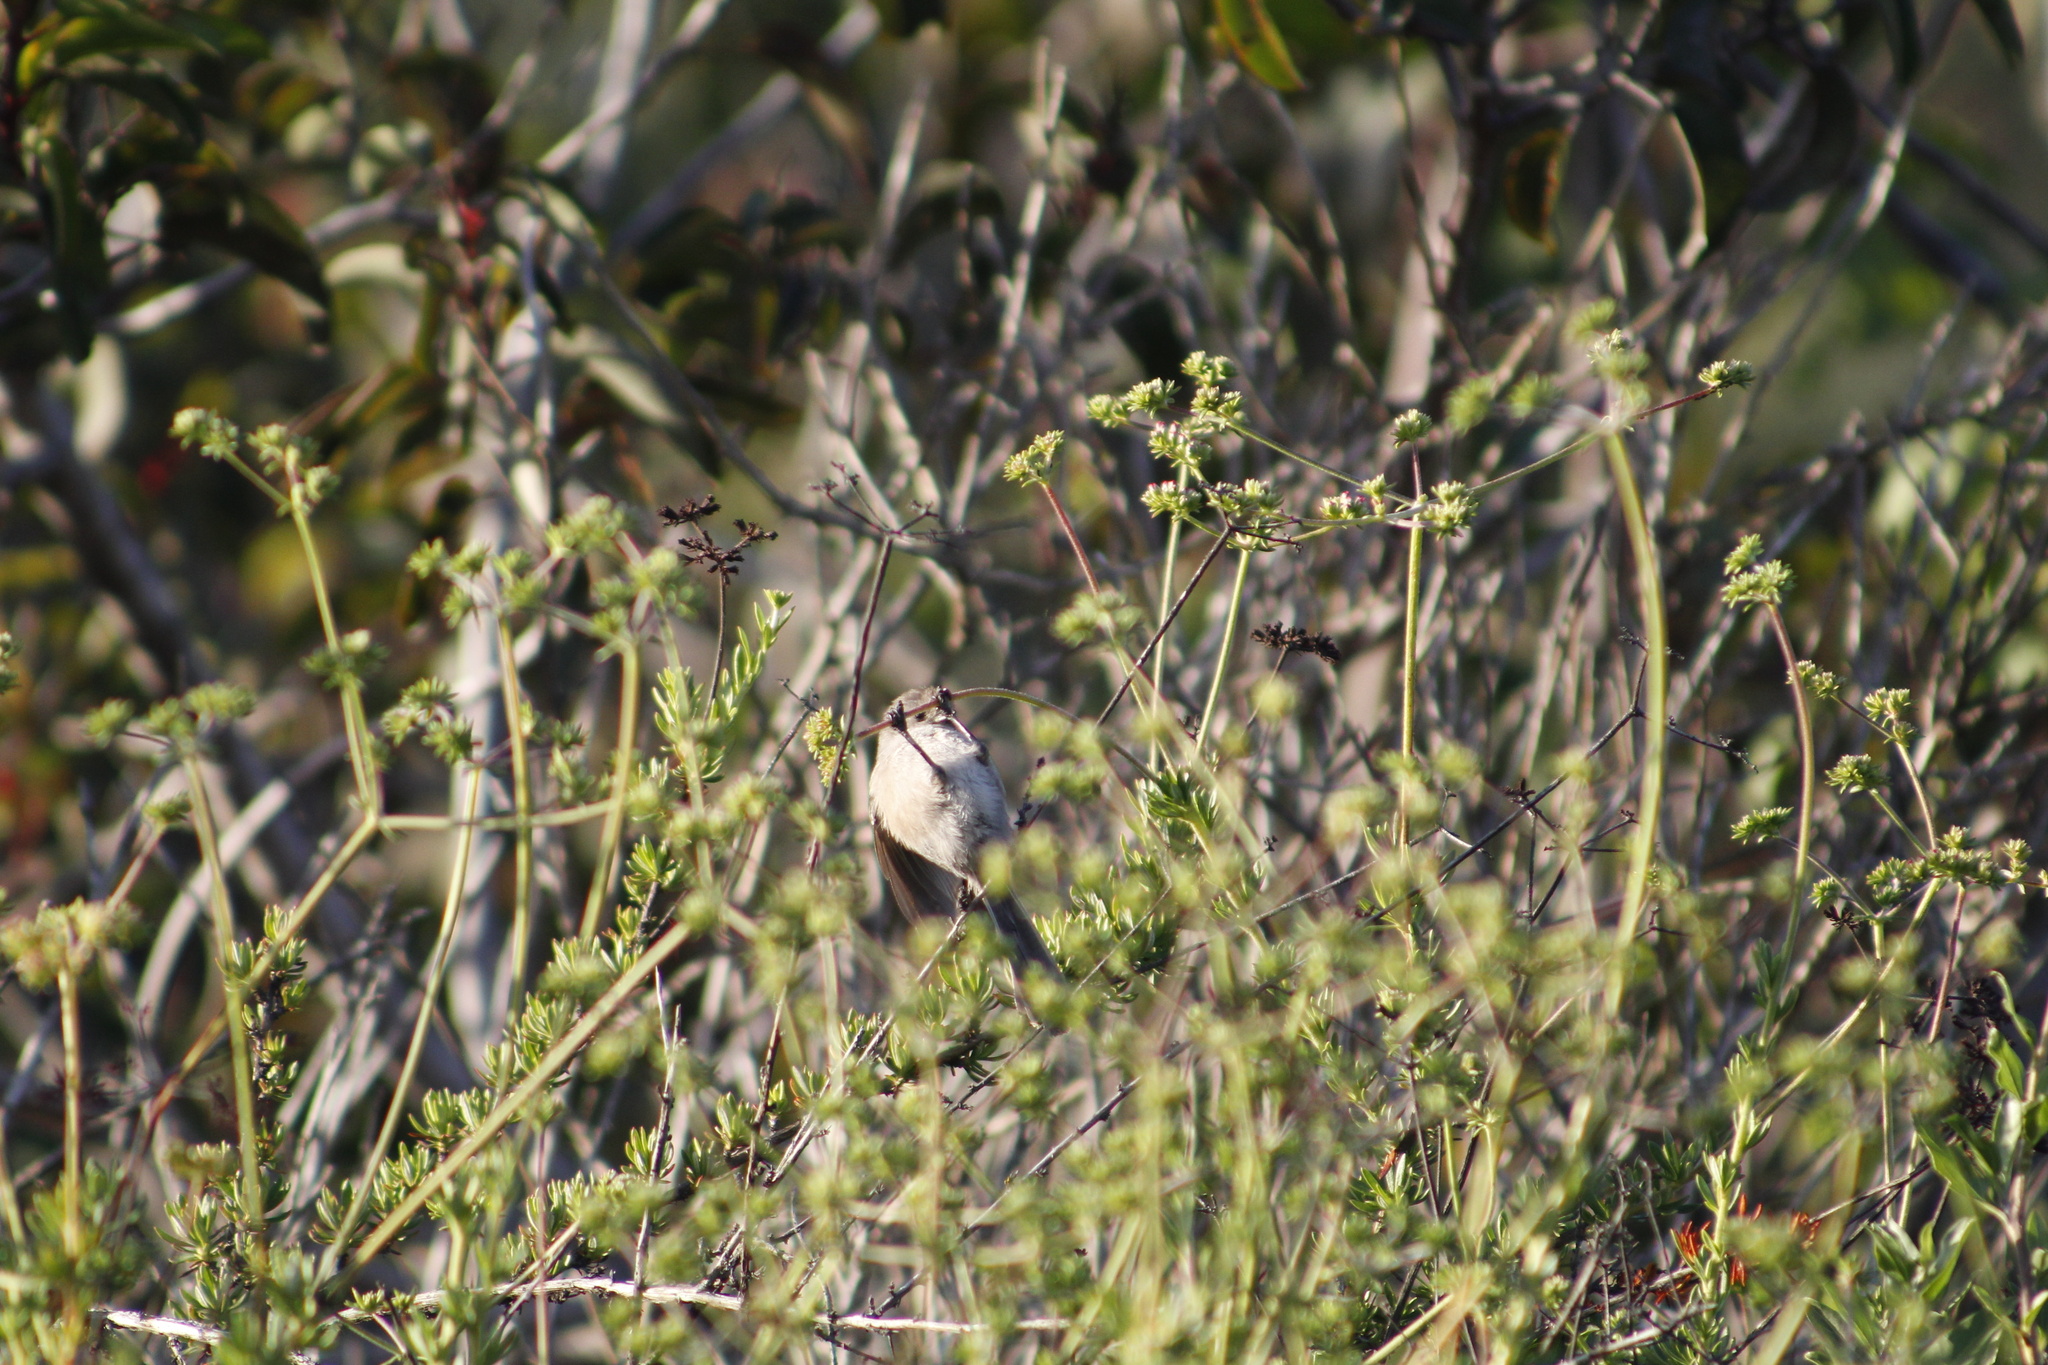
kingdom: Animalia
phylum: Chordata
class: Aves
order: Passeriformes
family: Aegithalidae
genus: Psaltriparus
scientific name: Psaltriparus minimus
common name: American bushtit
